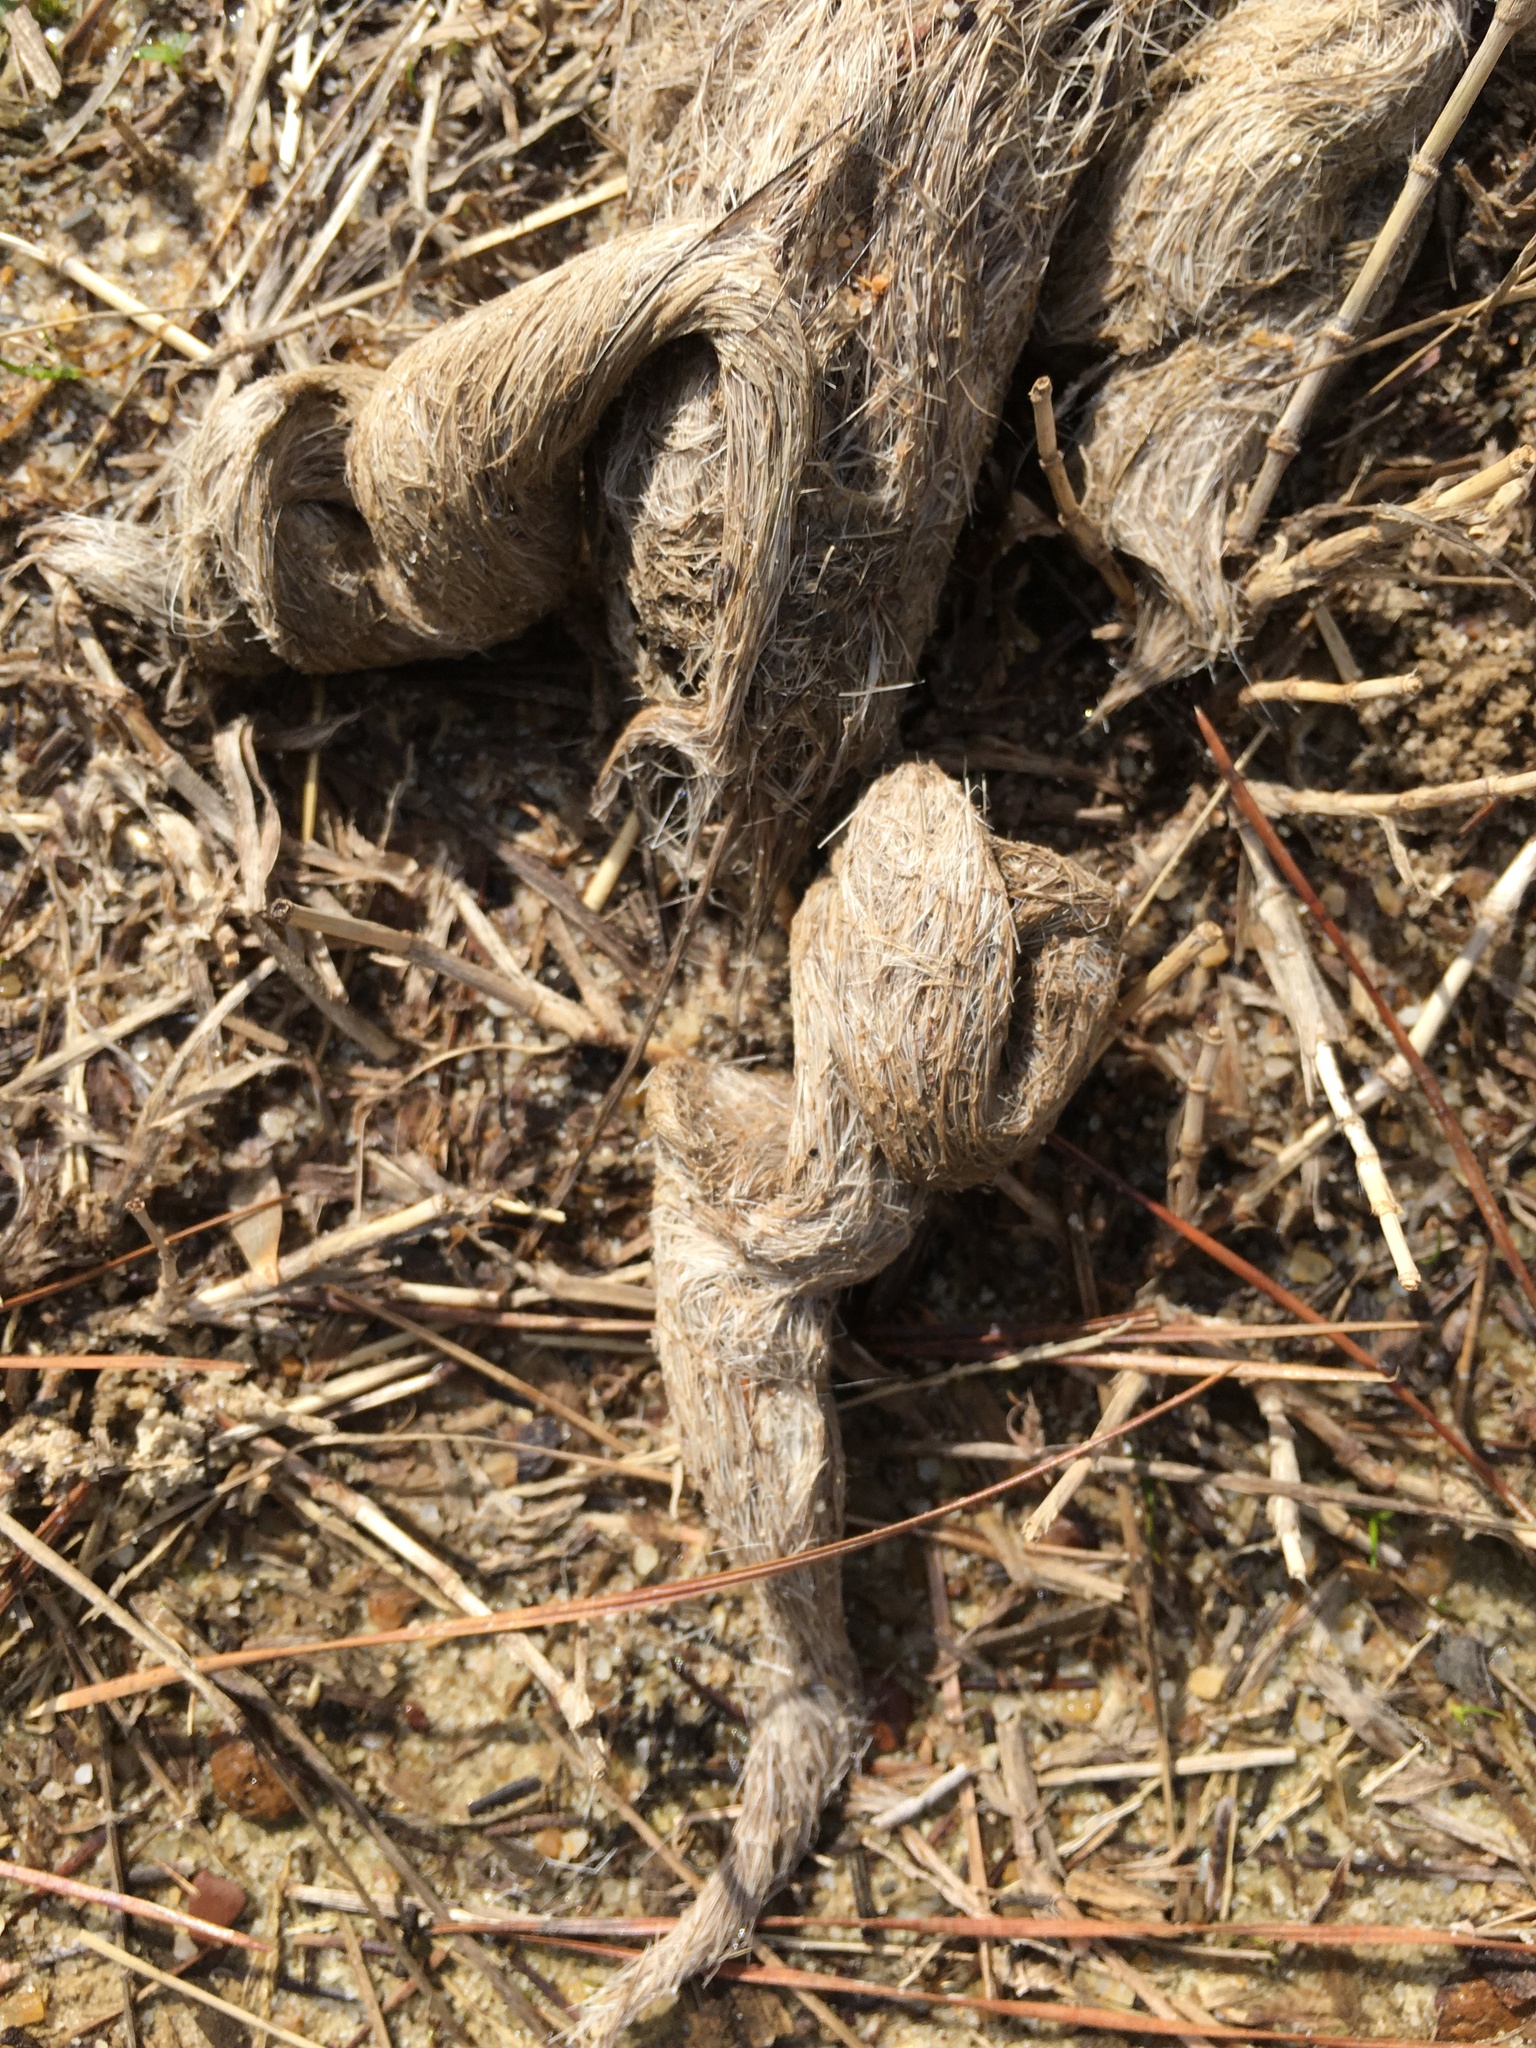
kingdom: Animalia
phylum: Chordata
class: Mammalia
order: Carnivora
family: Canidae
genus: Canis
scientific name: Canis latrans
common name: Coyote
